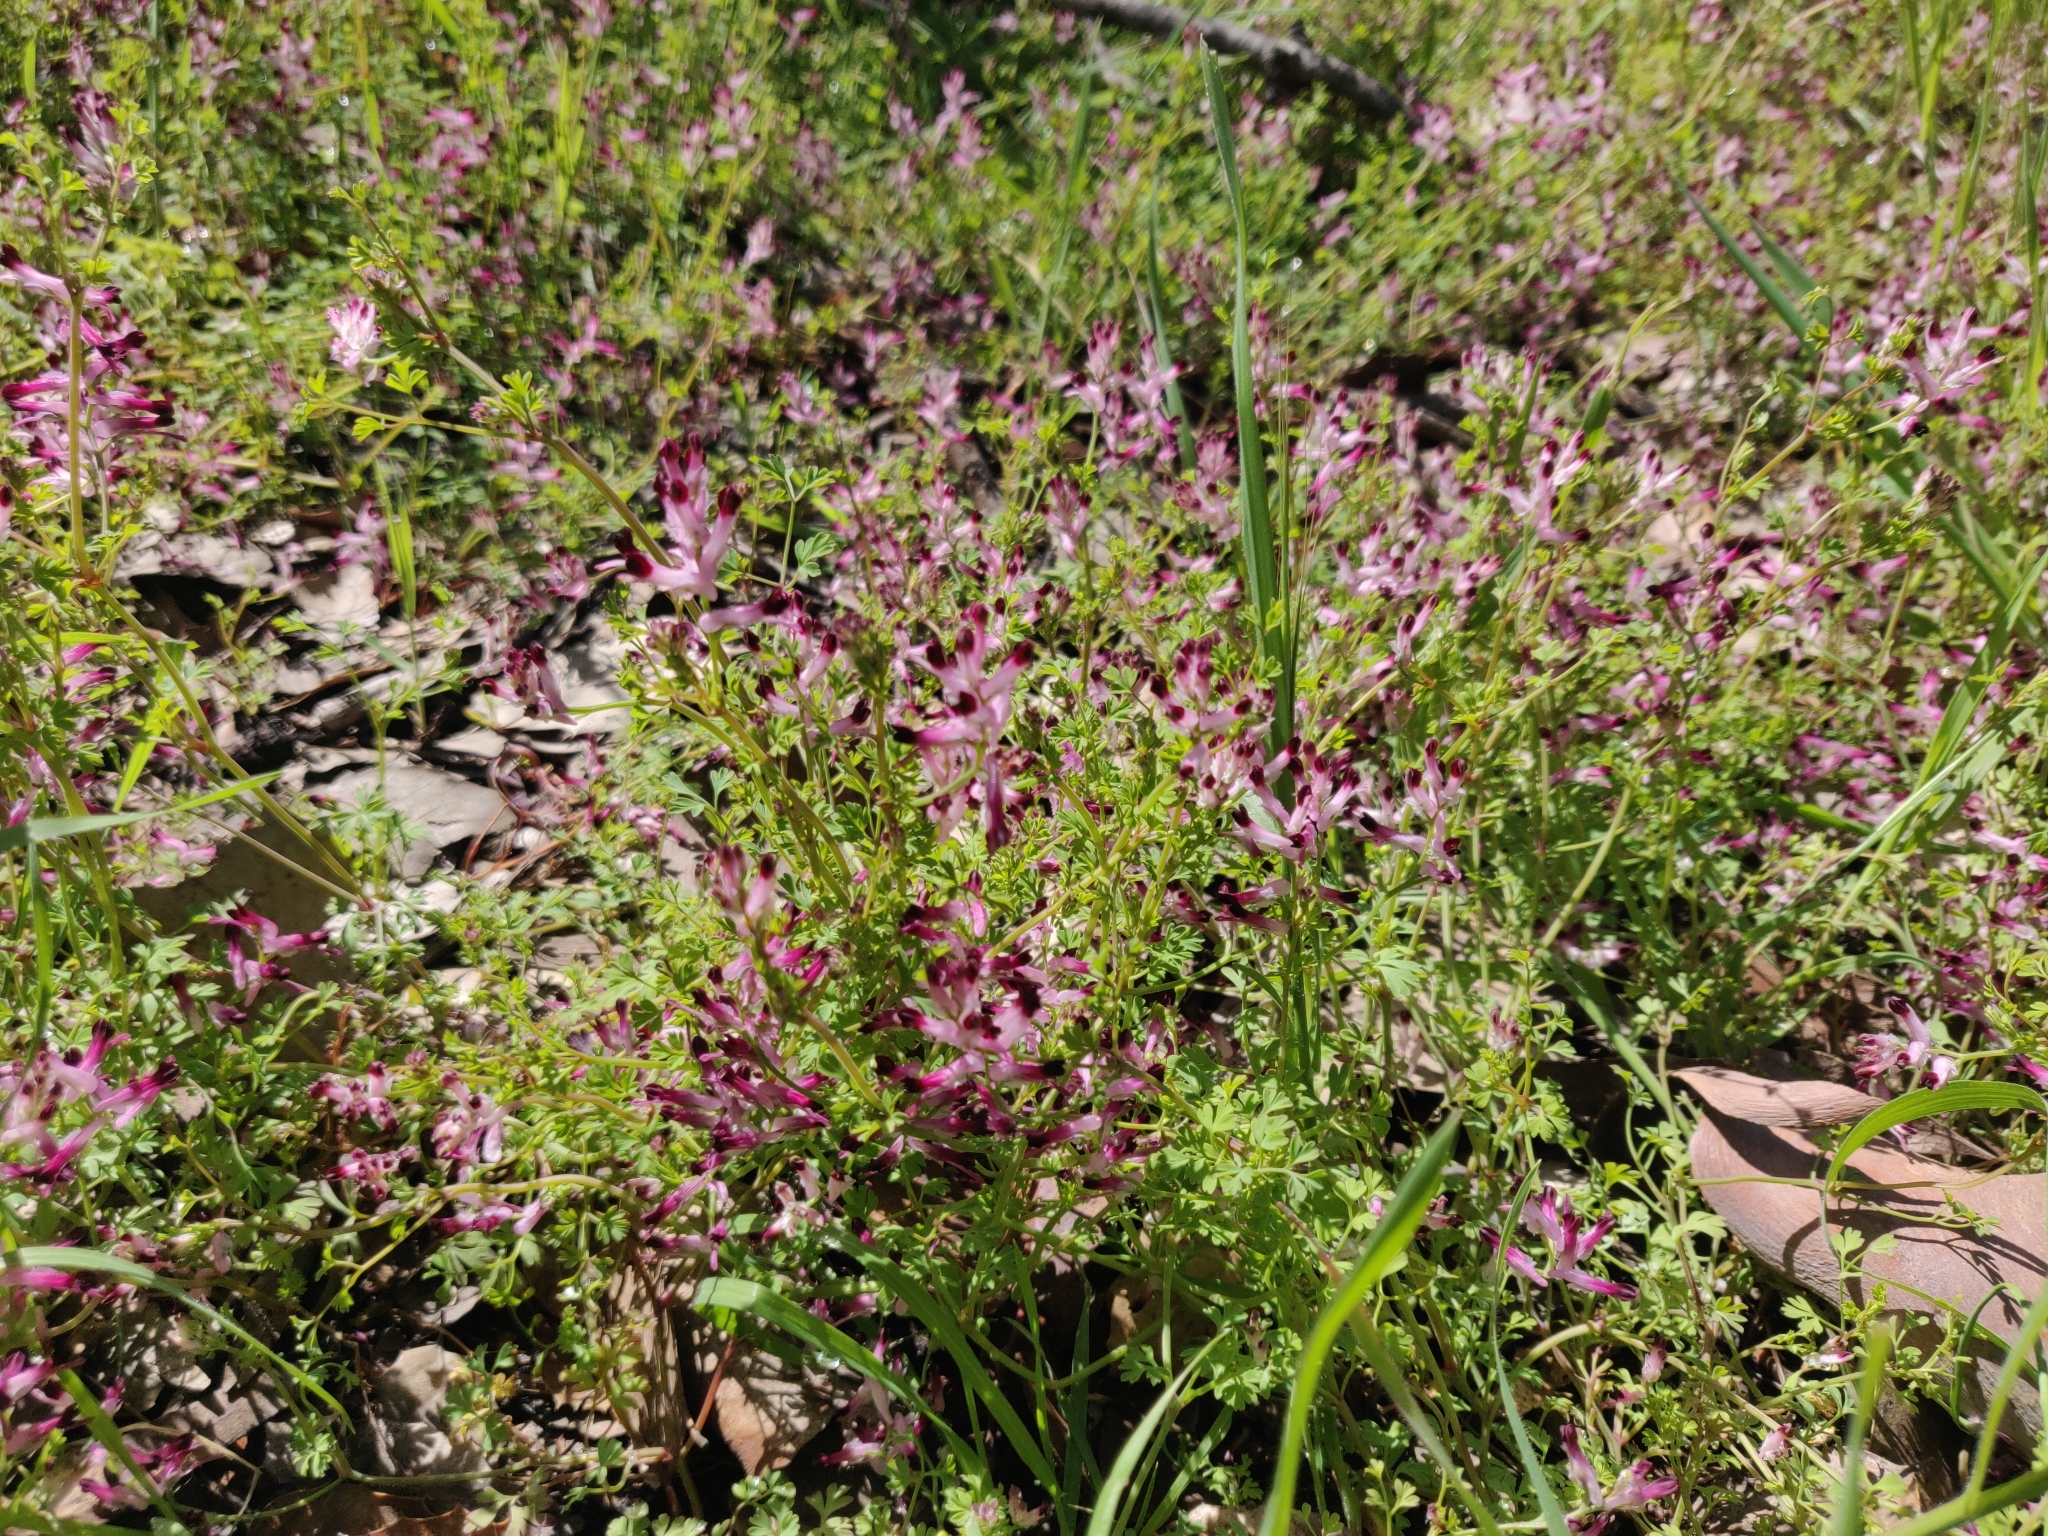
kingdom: Plantae
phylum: Tracheophyta
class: Magnoliopsida
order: Ranunculales
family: Papaveraceae
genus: Fumaria
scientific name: Fumaria muralis
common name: Common ramping-fumitory
